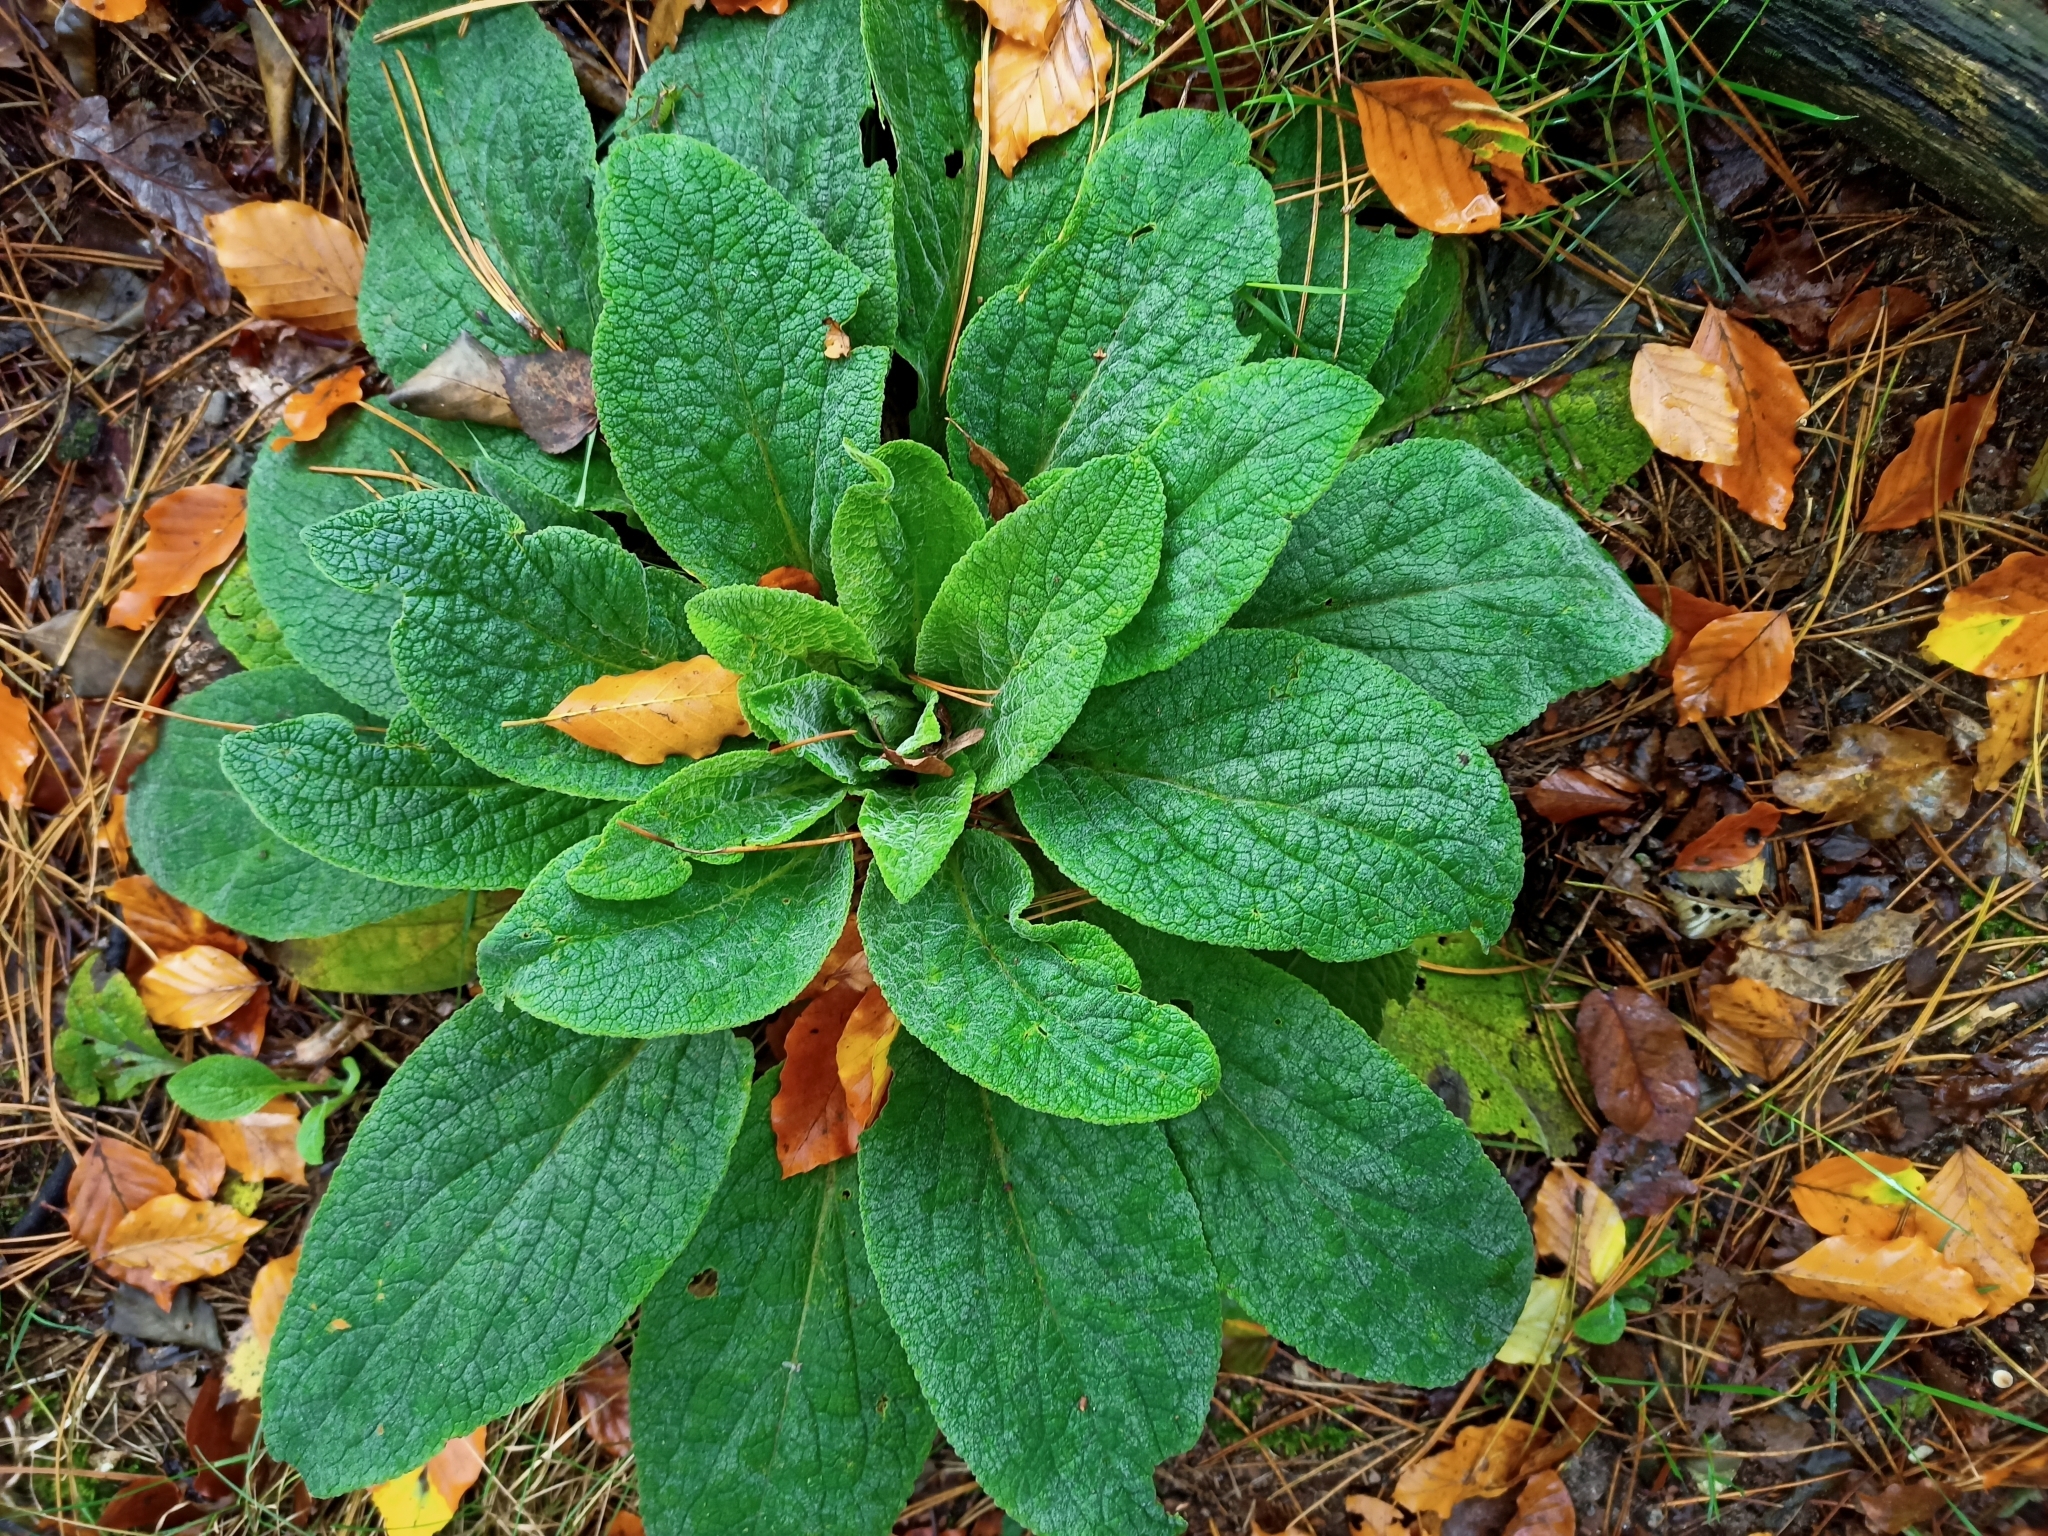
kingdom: Plantae
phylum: Tracheophyta
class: Magnoliopsida
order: Lamiales
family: Plantaginaceae
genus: Digitalis
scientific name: Digitalis purpurea
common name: Foxglove
